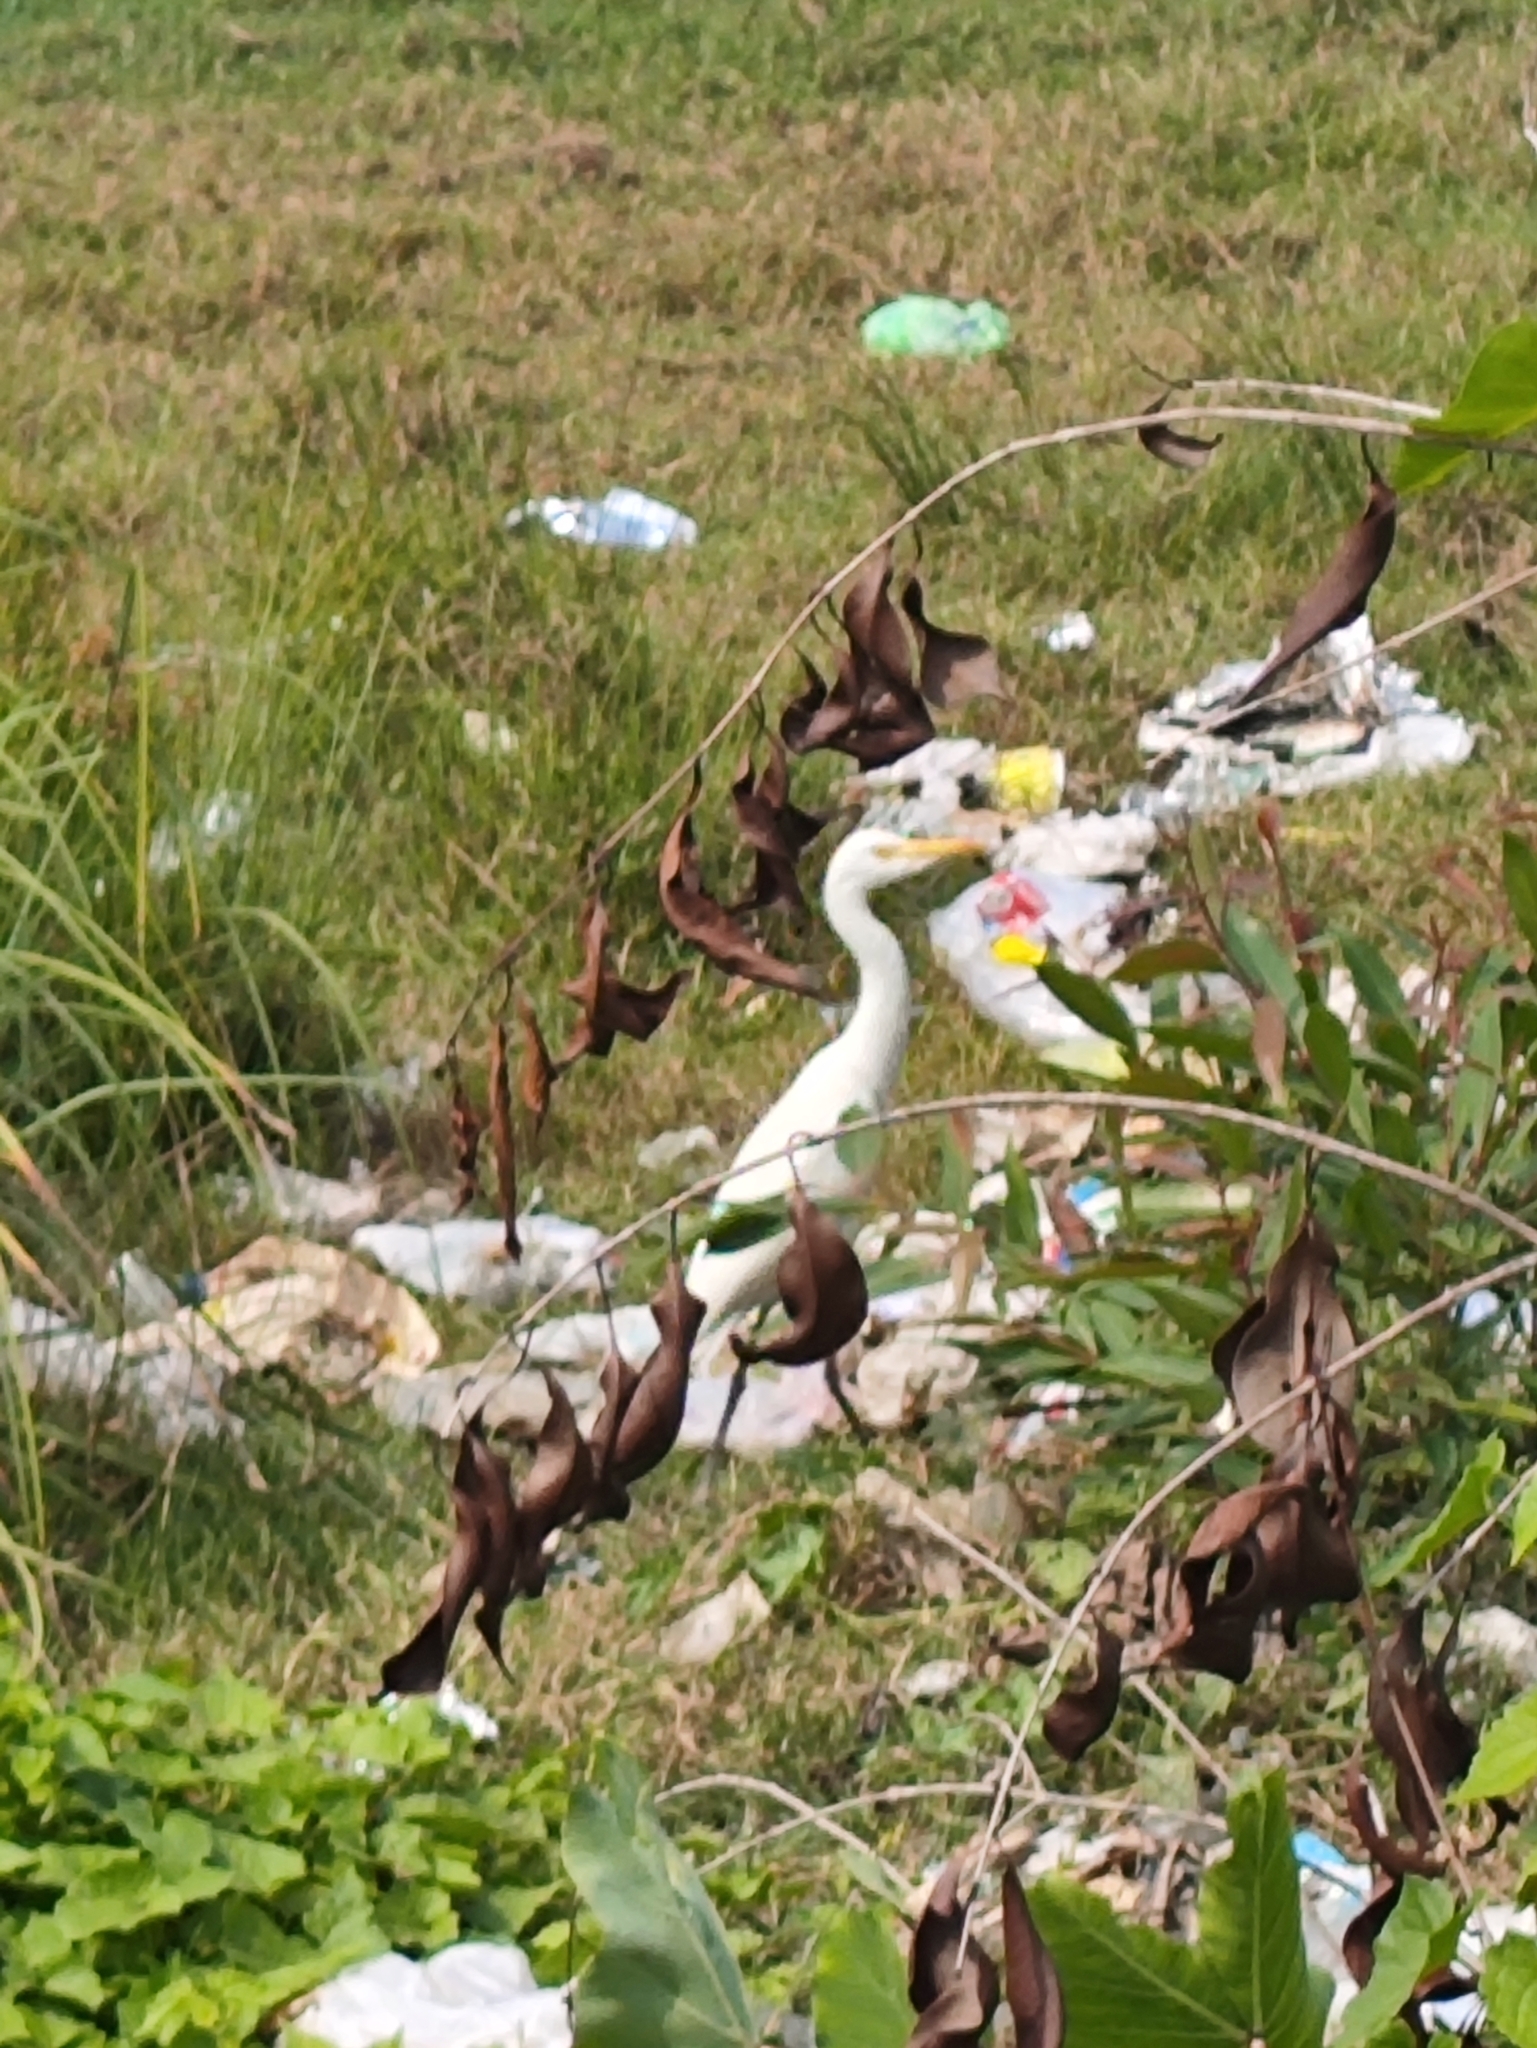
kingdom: Animalia
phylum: Chordata
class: Aves
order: Pelecaniformes
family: Ardeidae
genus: Bubulcus
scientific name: Bubulcus coromandus
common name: Eastern cattle egret
